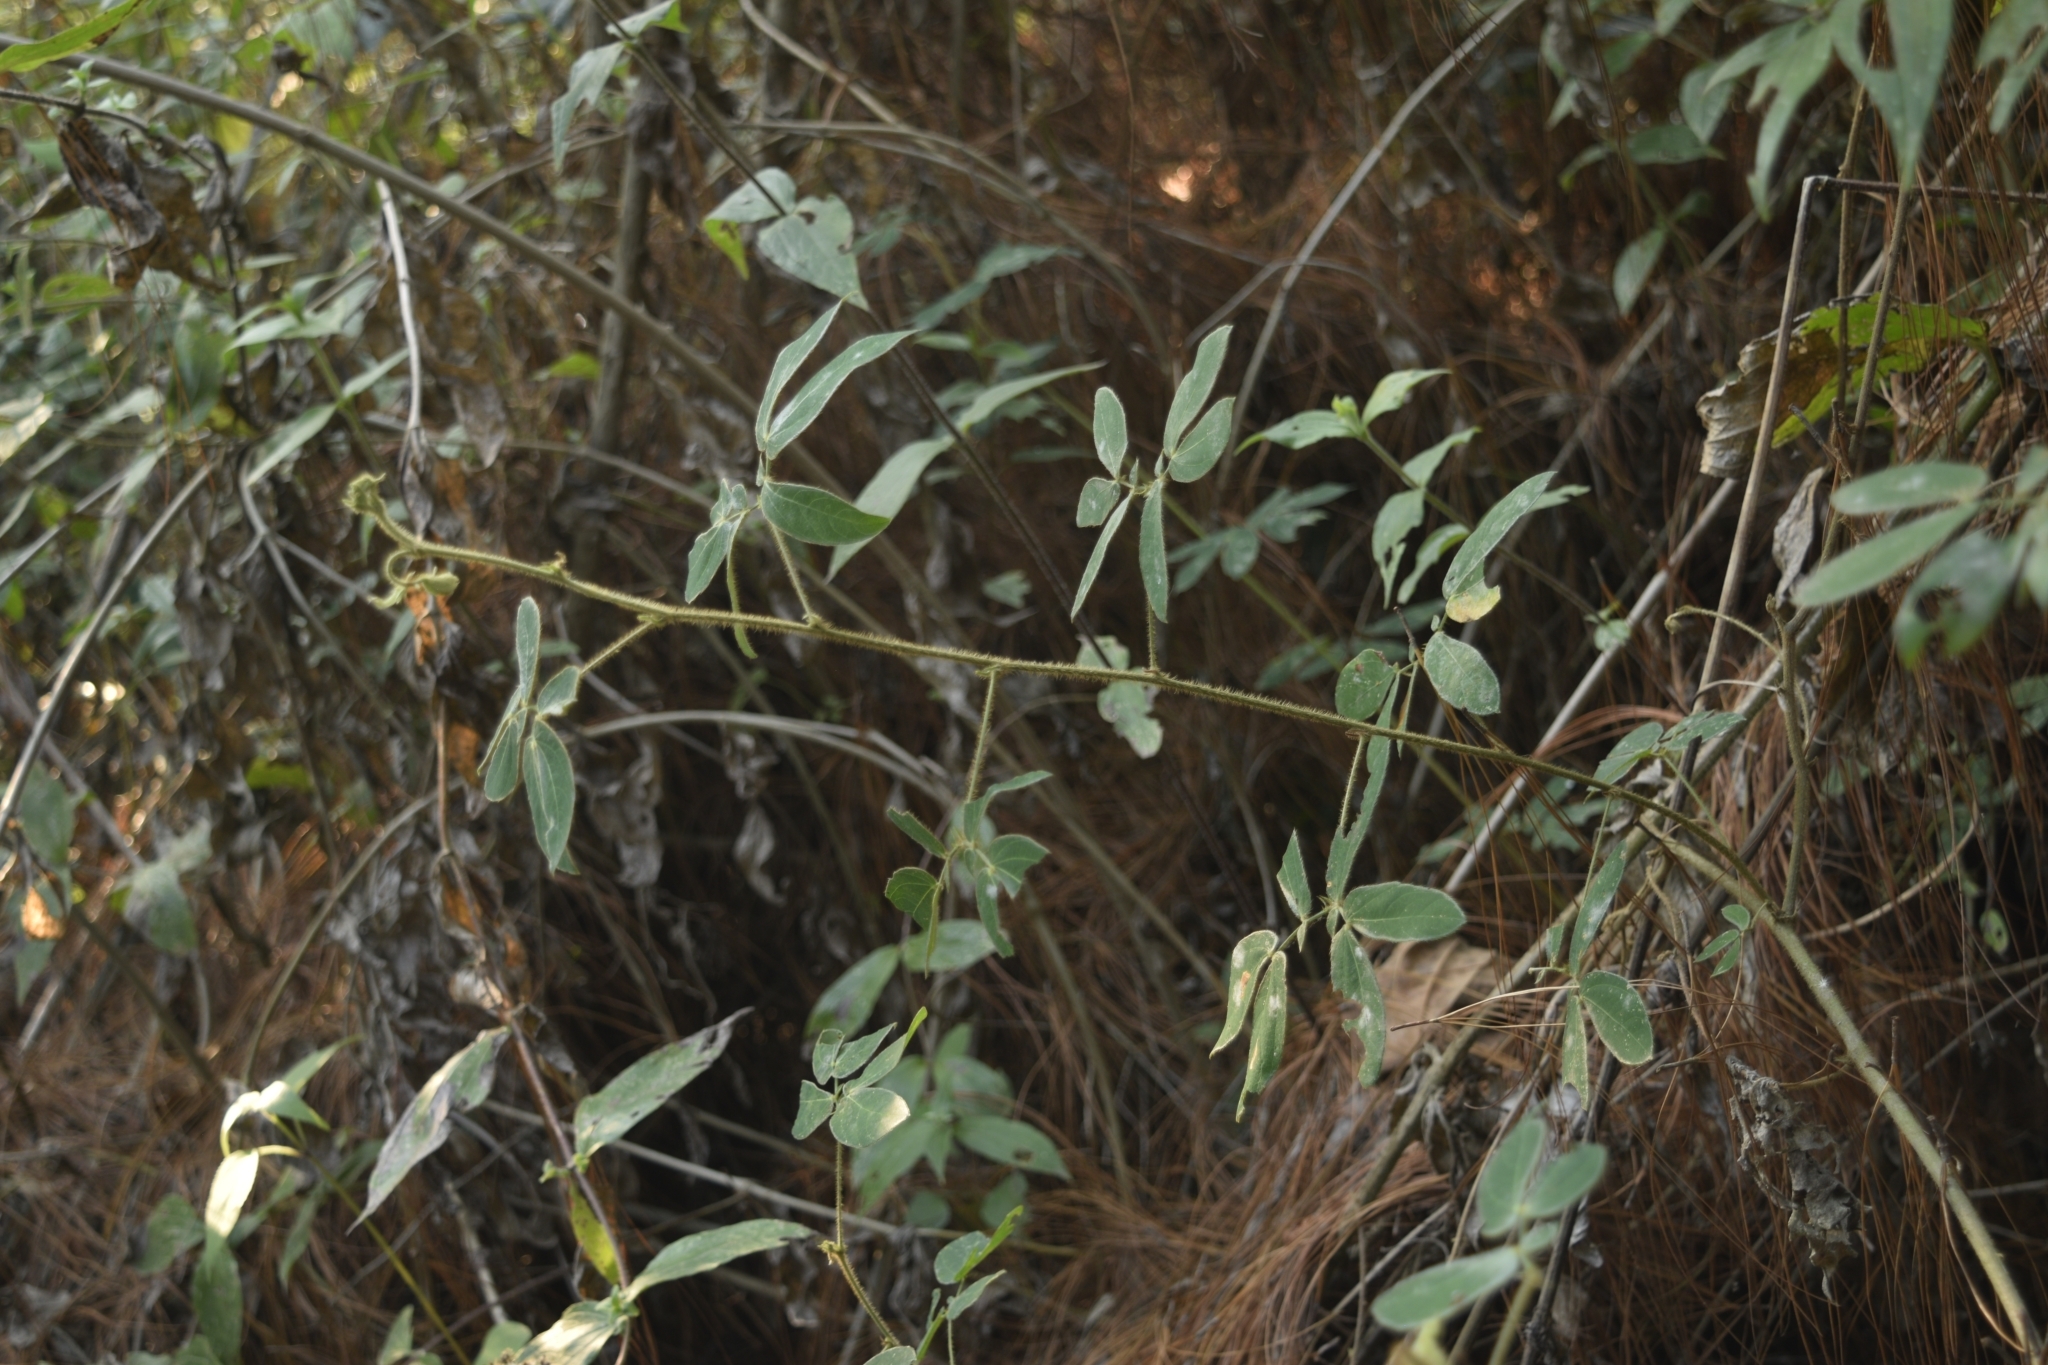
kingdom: Plantae
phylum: Tracheophyta
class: Magnoliopsida
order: Fabales
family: Fabaceae
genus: Mimosa
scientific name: Mimosa albida
